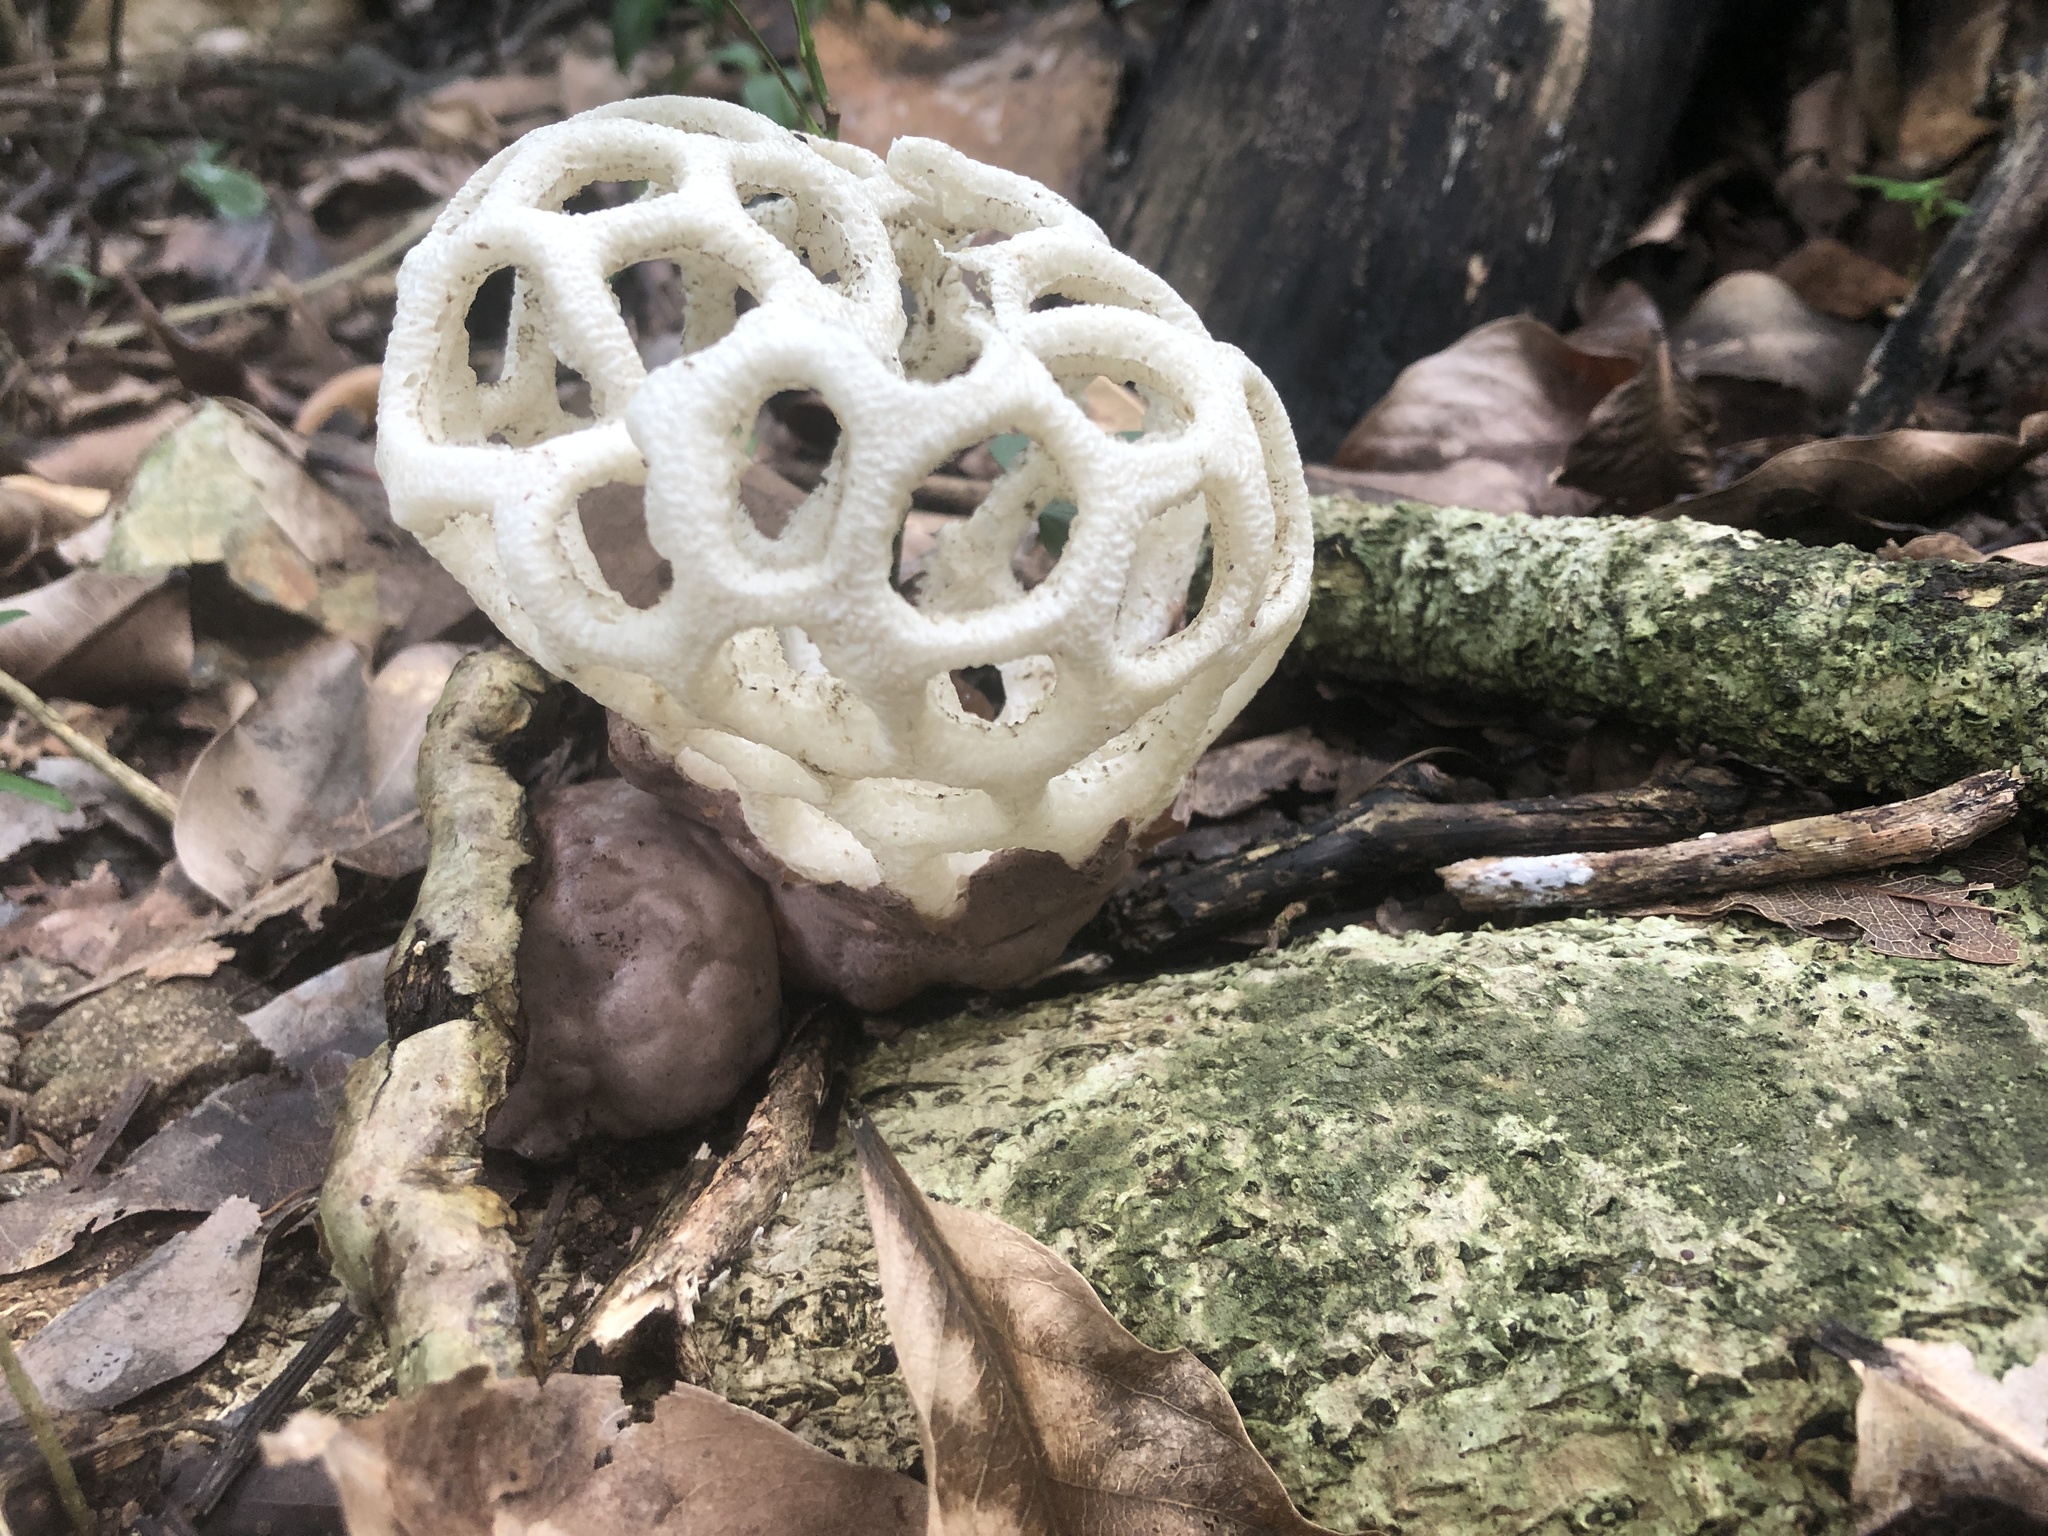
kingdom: Fungi
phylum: Basidiomycota
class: Agaricomycetes
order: Phallales
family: Phallaceae
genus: Clathrus
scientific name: Clathrus roseovolvatus
